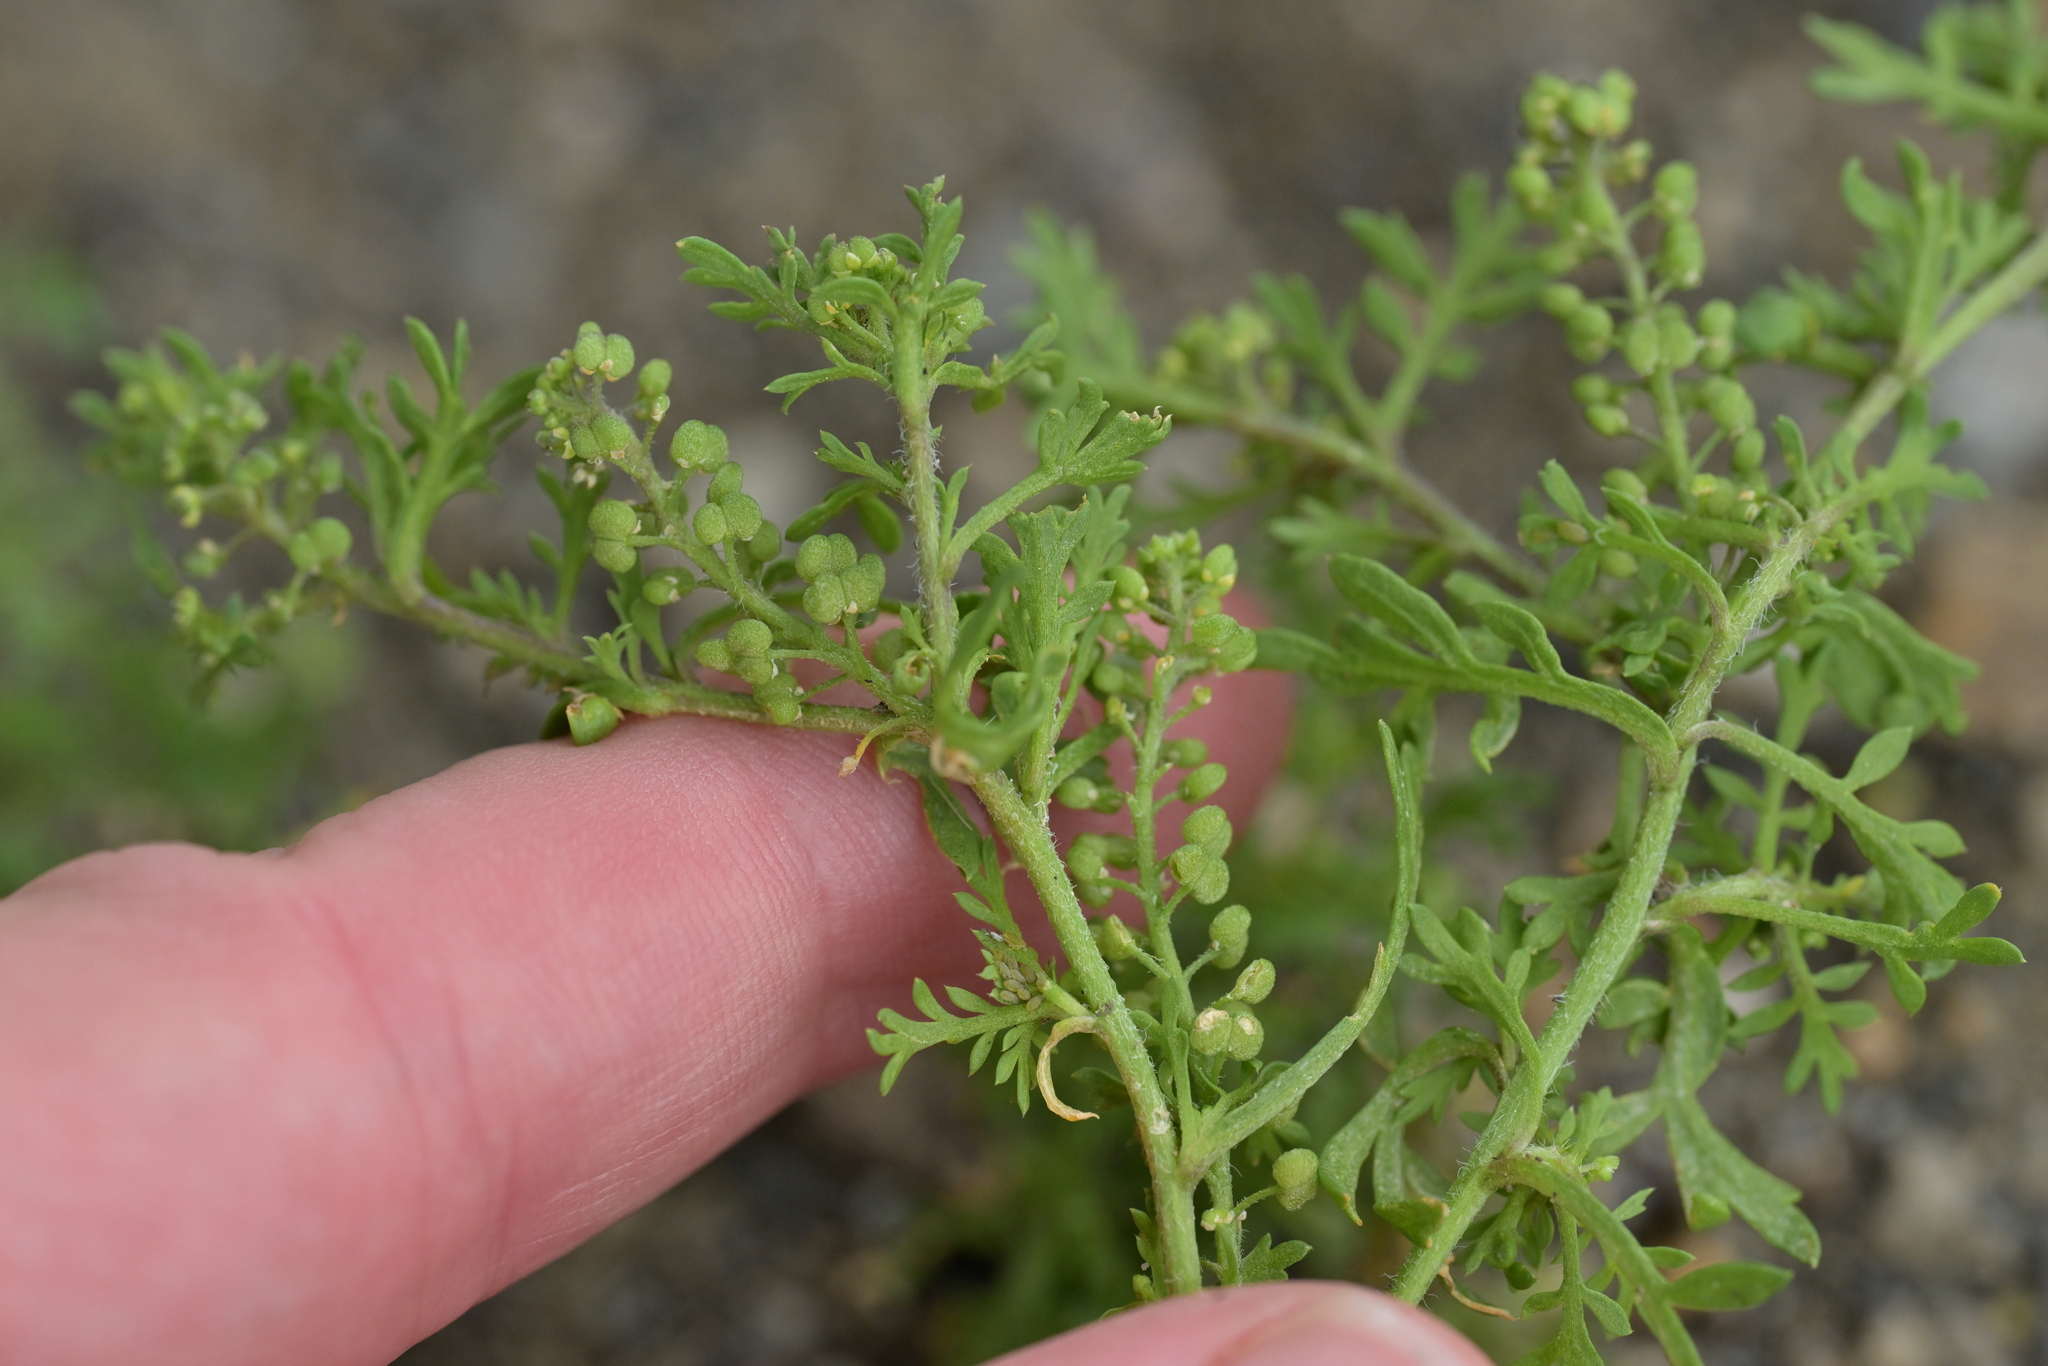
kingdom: Plantae
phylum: Tracheophyta
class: Magnoliopsida
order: Brassicales
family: Brassicaceae
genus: Lepidium
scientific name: Lepidium didymum
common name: Lesser swinecress
